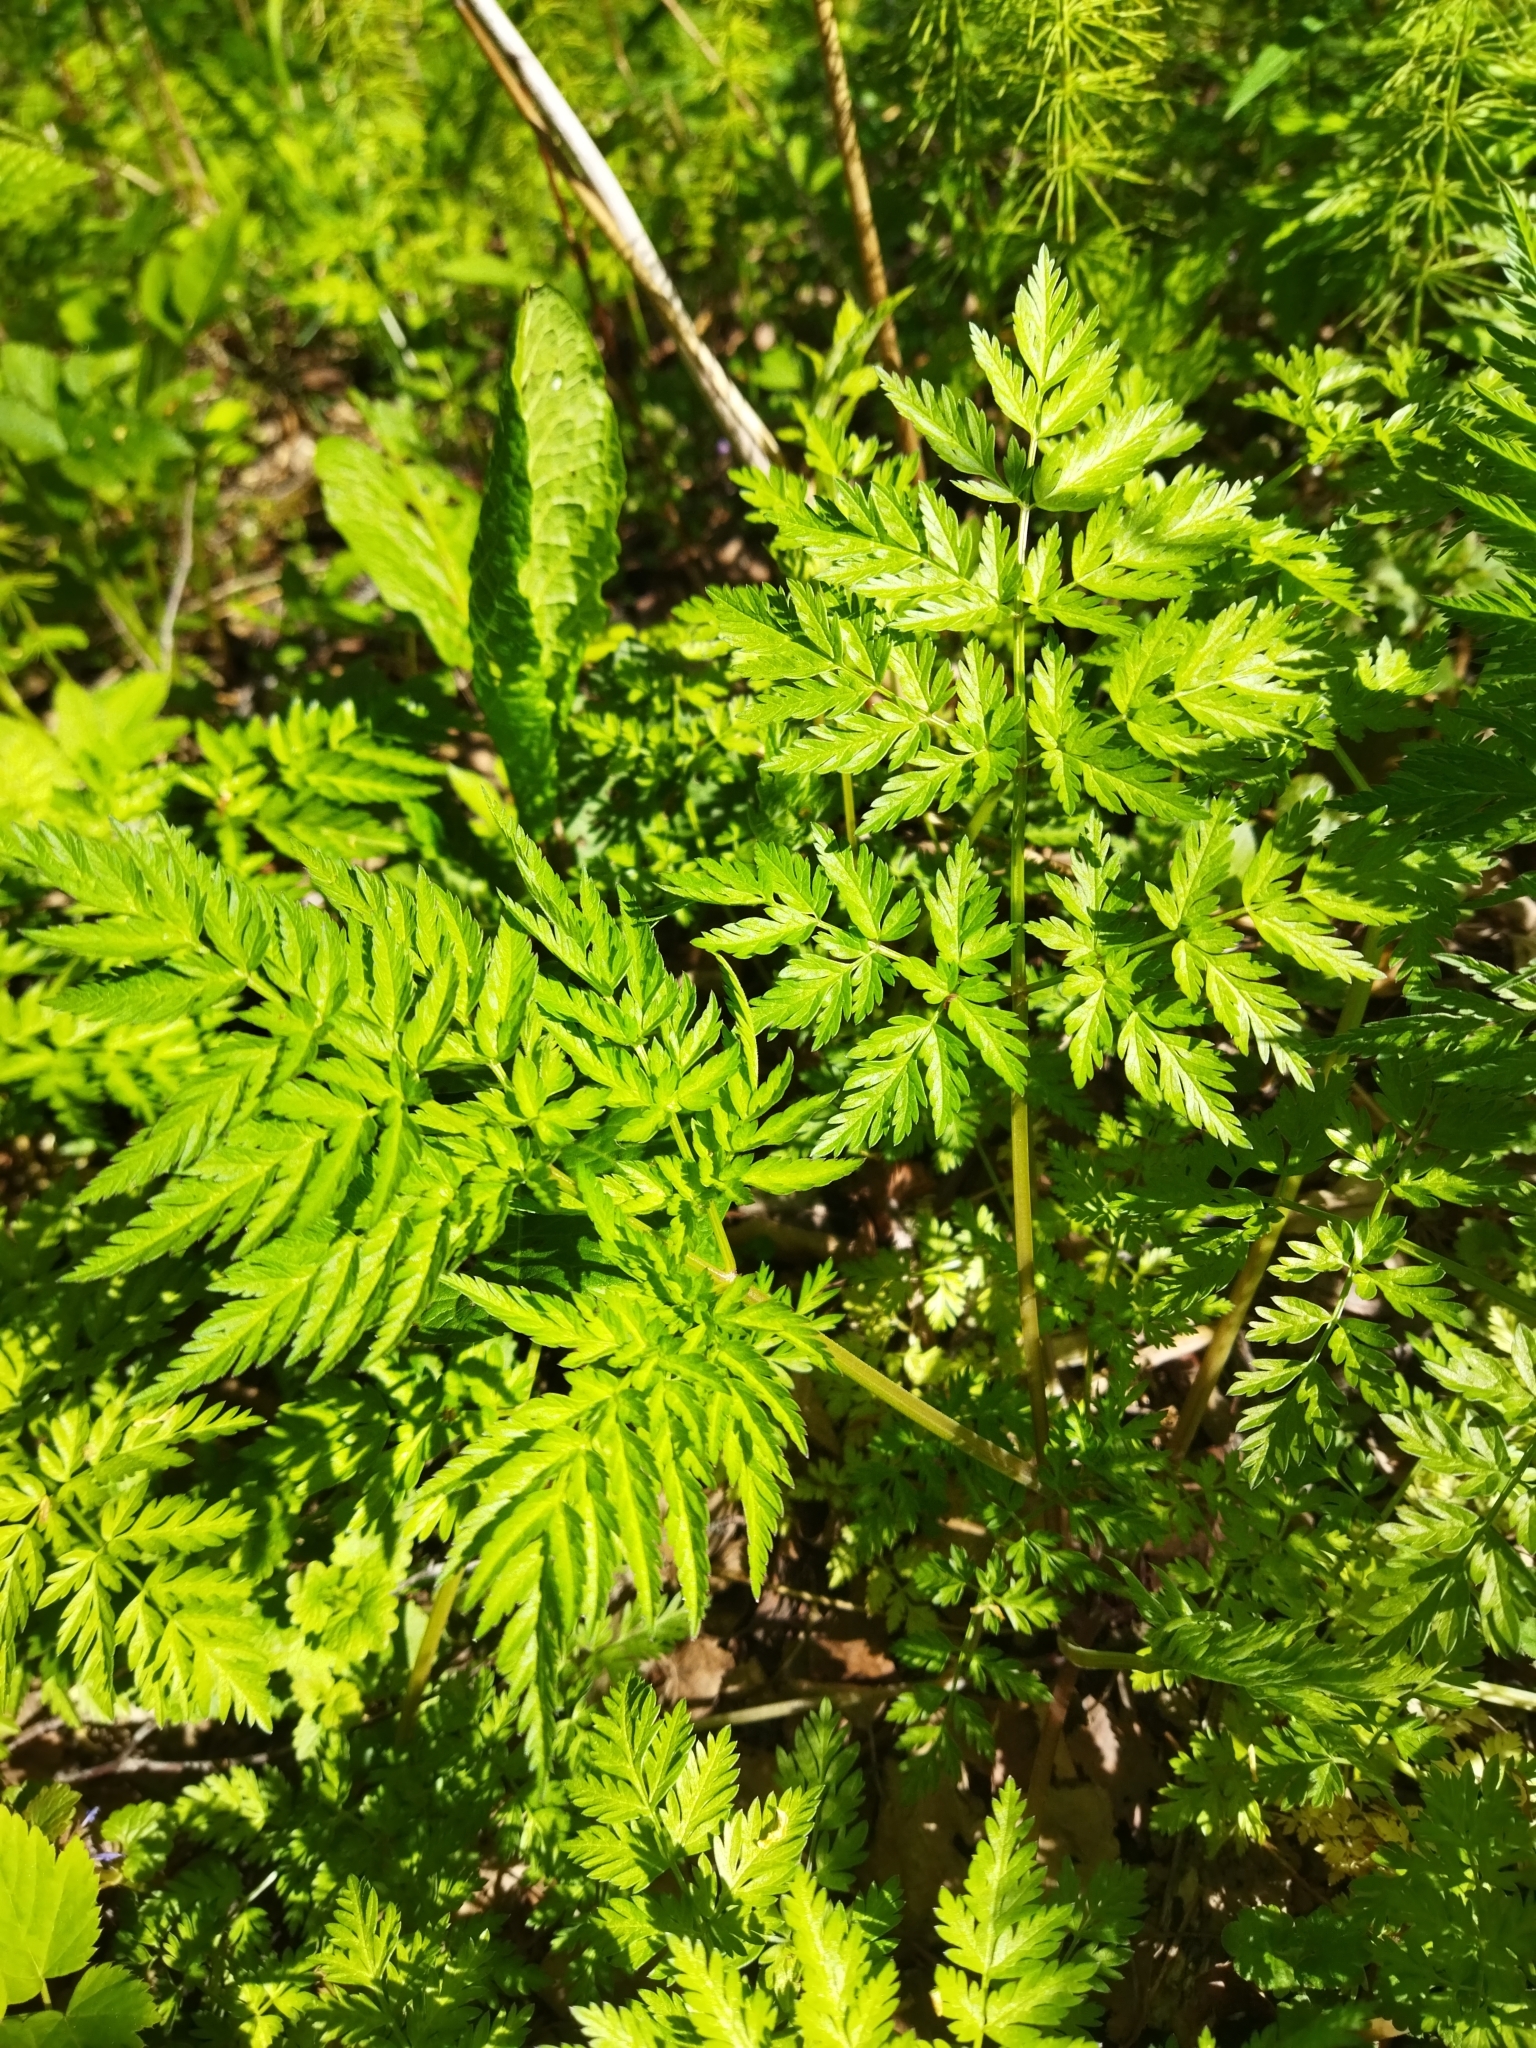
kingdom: Plantae
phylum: Tracheophyta
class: Magnoliopsida
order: Apiales
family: Apiaceae
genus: Anthriscus
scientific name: Anthriscus sylvestris
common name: Cow parsley
